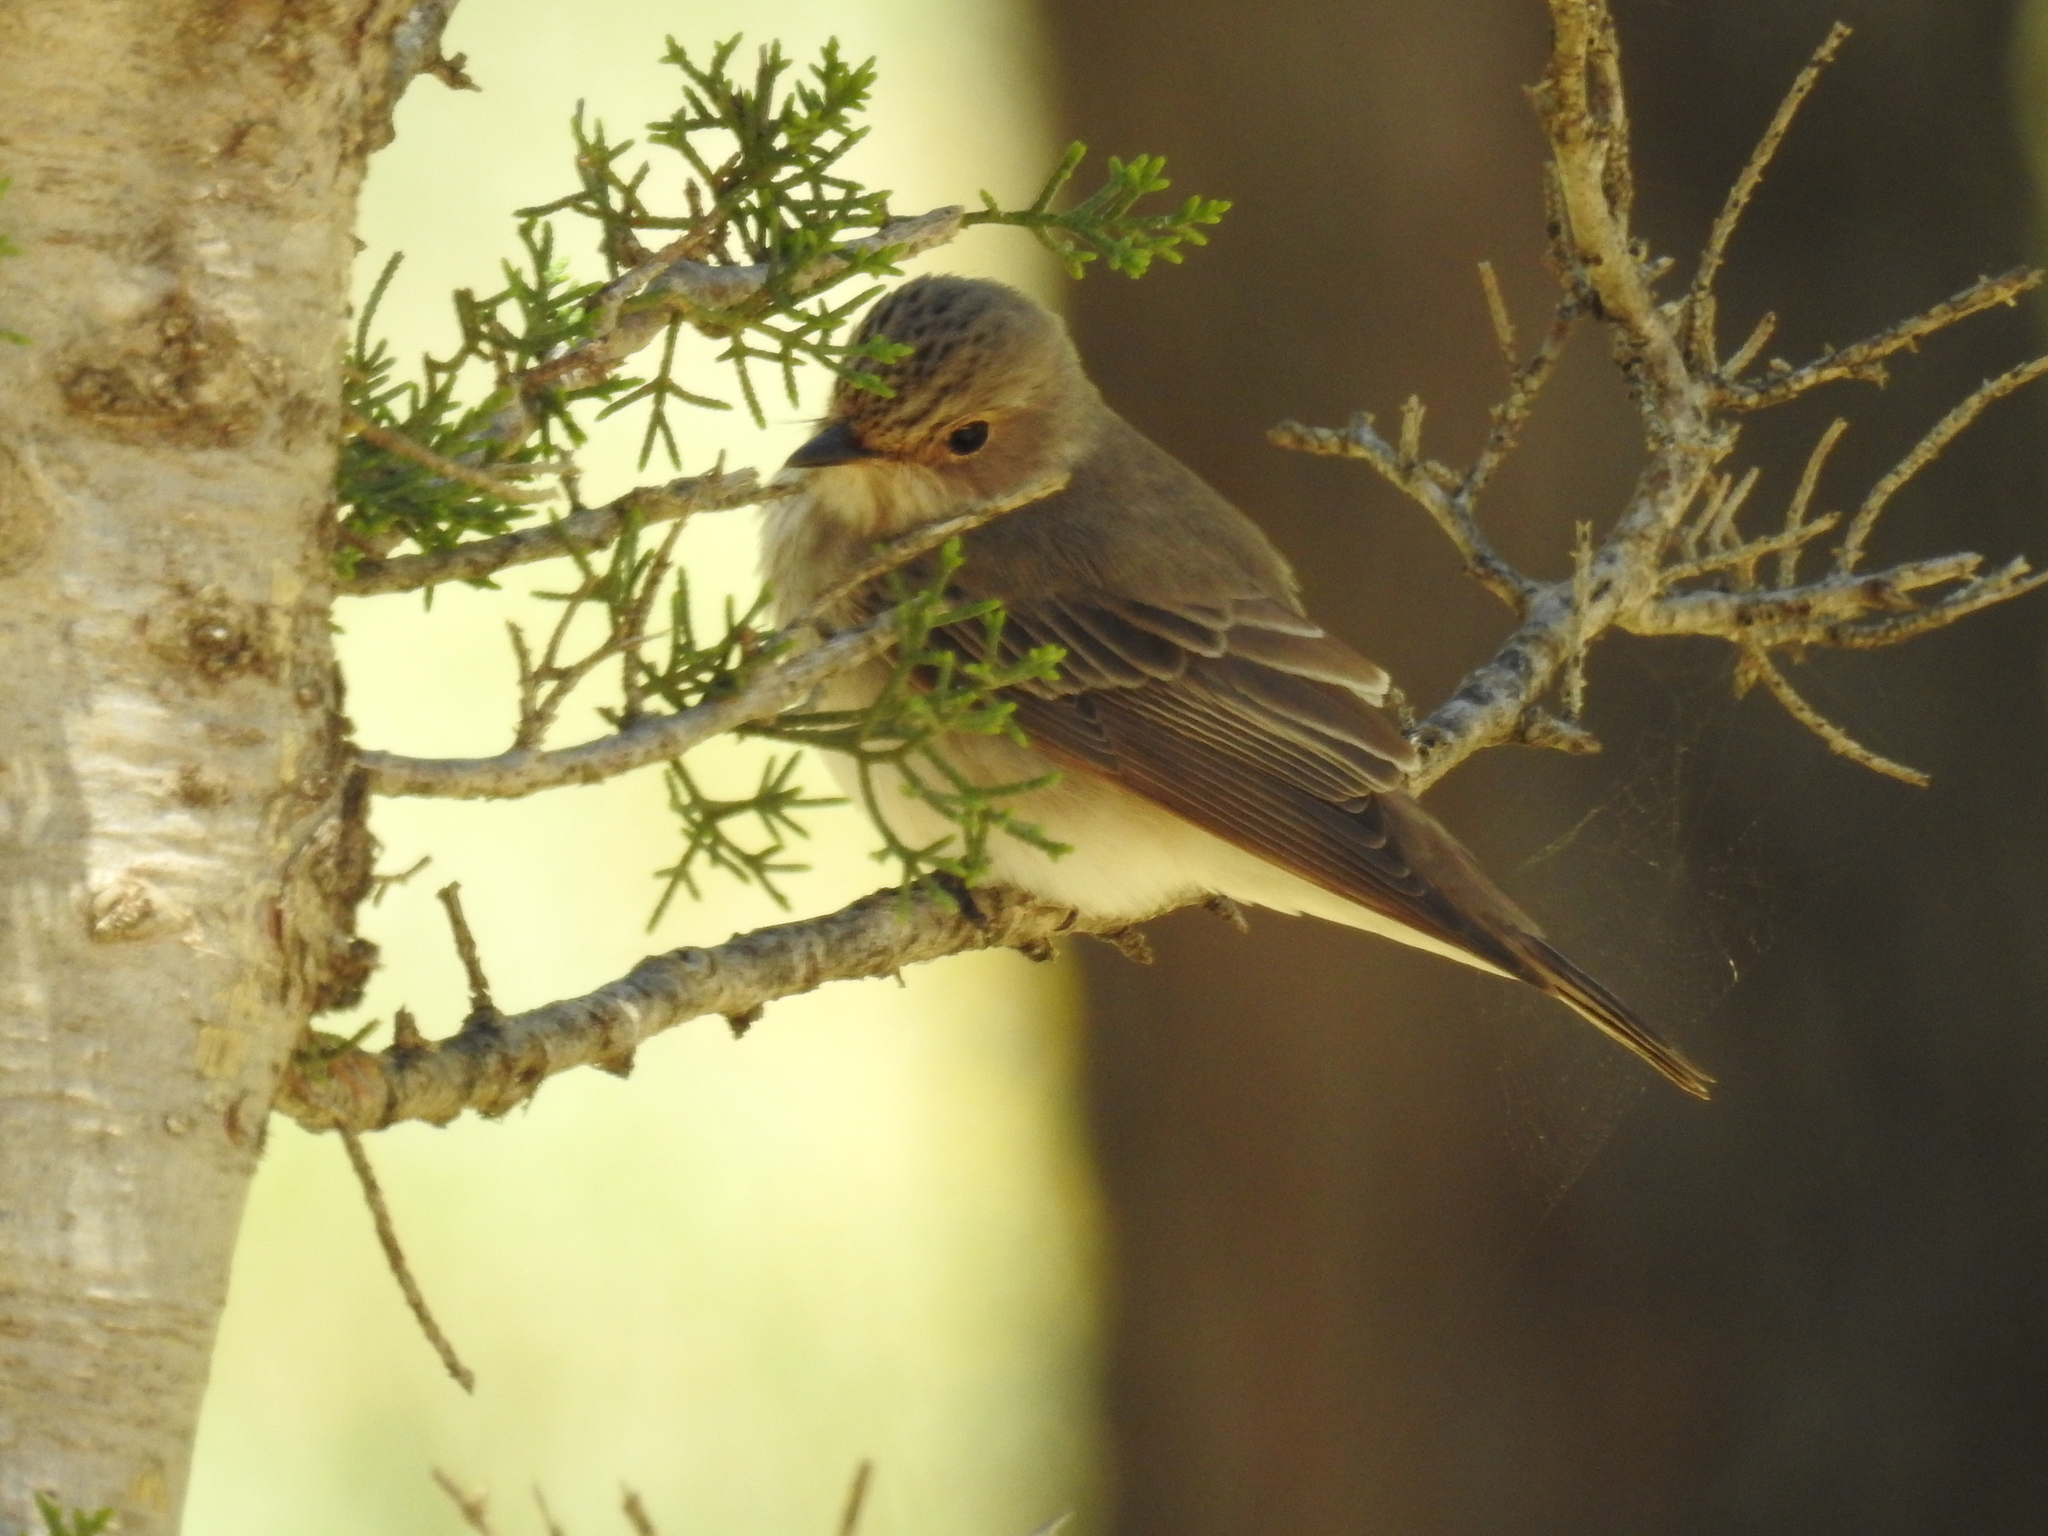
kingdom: Animalia
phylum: Chordata
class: Aves
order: Passeriformes
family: Muscicapidae
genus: Muscicapa
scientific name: Muscicapa striata
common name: Spotted flycatcher
